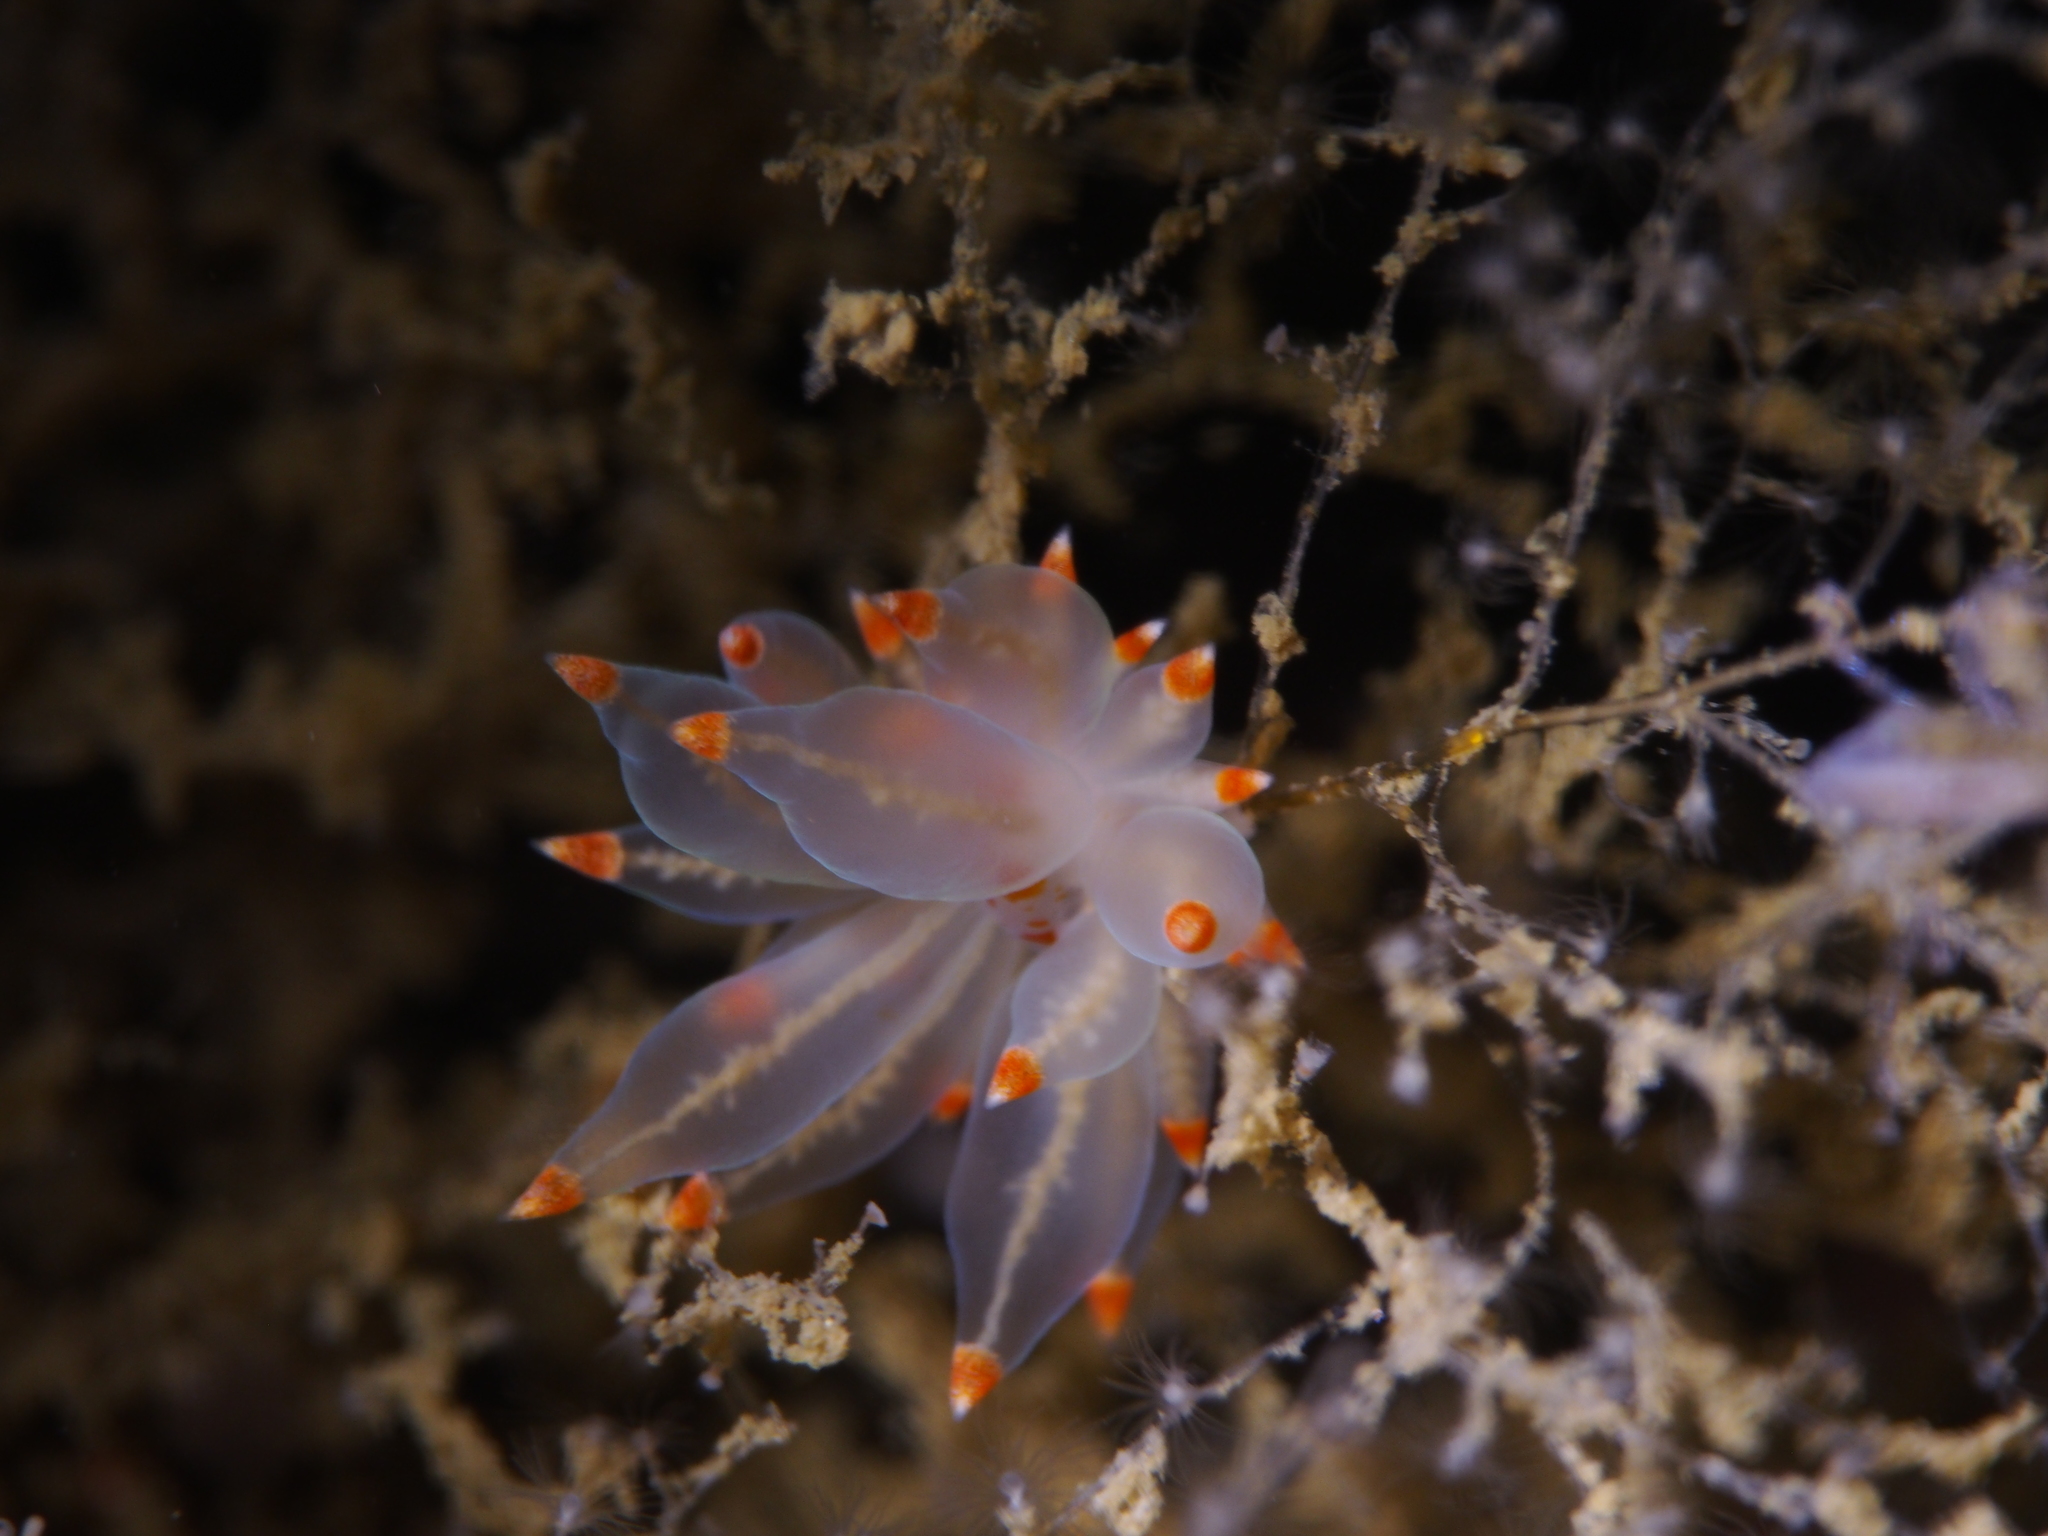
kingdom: Animalia
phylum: Mollusca
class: Gastropoda
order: Nudibranchia
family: Eubranchidae
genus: Amphorina
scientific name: Amphorina farrani
